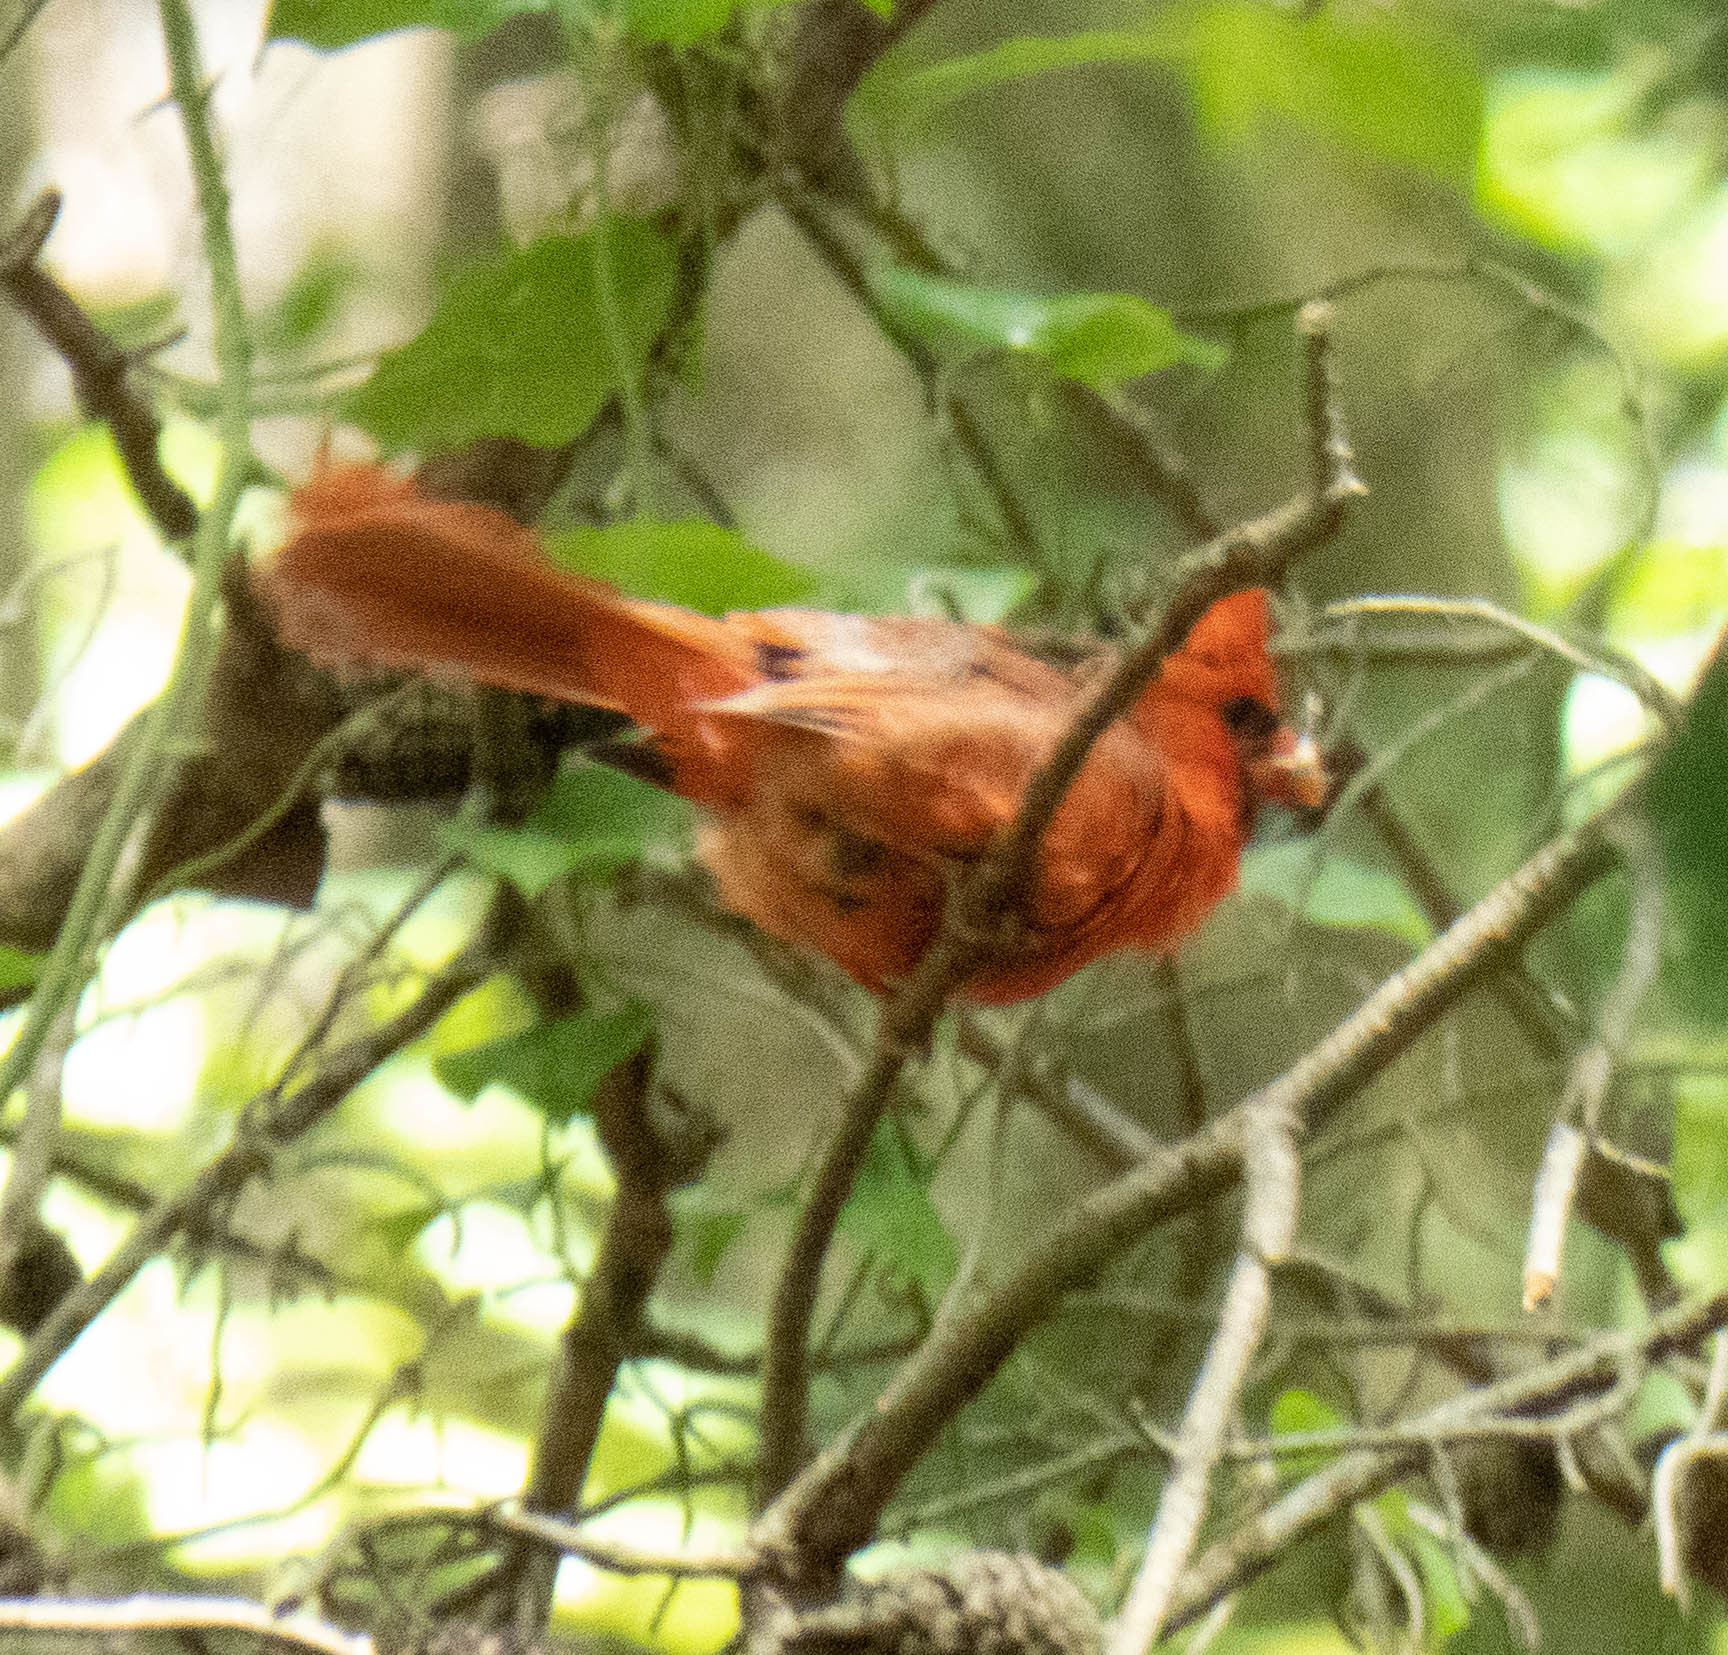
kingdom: Animalia
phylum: Chordata
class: Aves
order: Passeriformes
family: Cardinalidae
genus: Cardinalis
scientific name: Cardinalis cardinalis
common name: Northern cardinal
